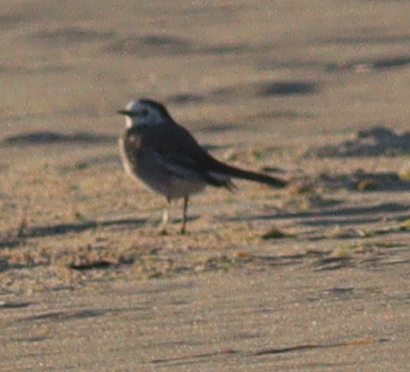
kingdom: Animalia
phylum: Chordata
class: Aves
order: Passeriformes
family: Motacillidae
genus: Motacilla
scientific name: Motacilla alba
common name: White wagtail
